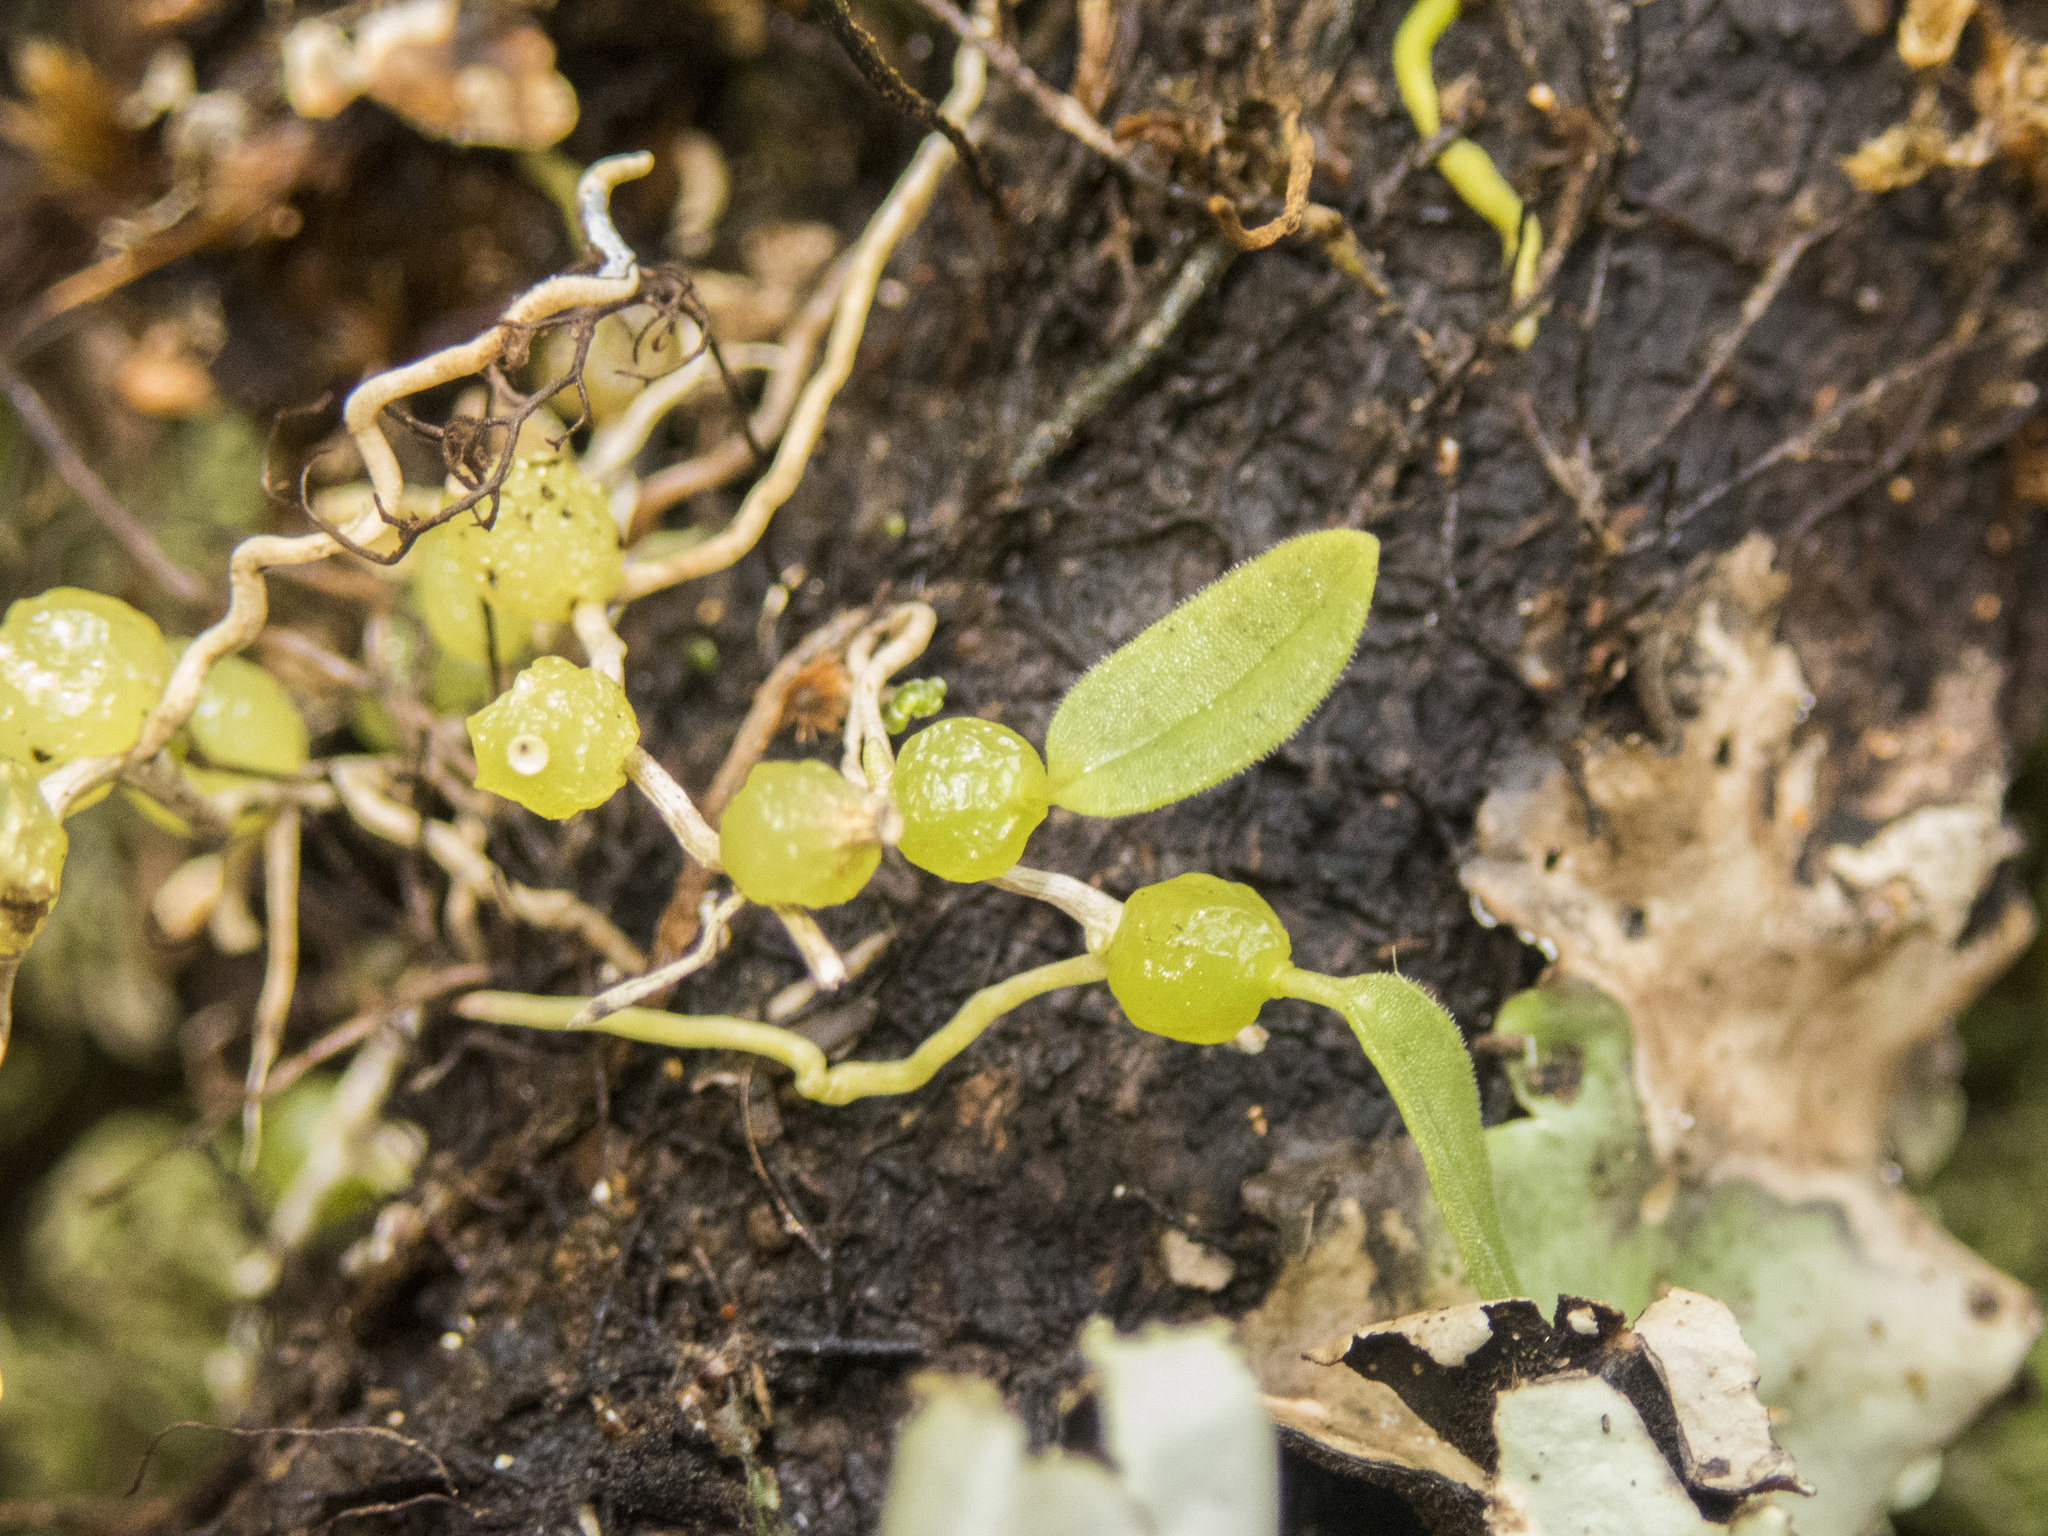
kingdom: Plantae
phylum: Tracheophyta
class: Liliopsida
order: Asparagales
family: Orchidaceae
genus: Bulbophyllum
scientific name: Bulbophyllum pygmaeum
